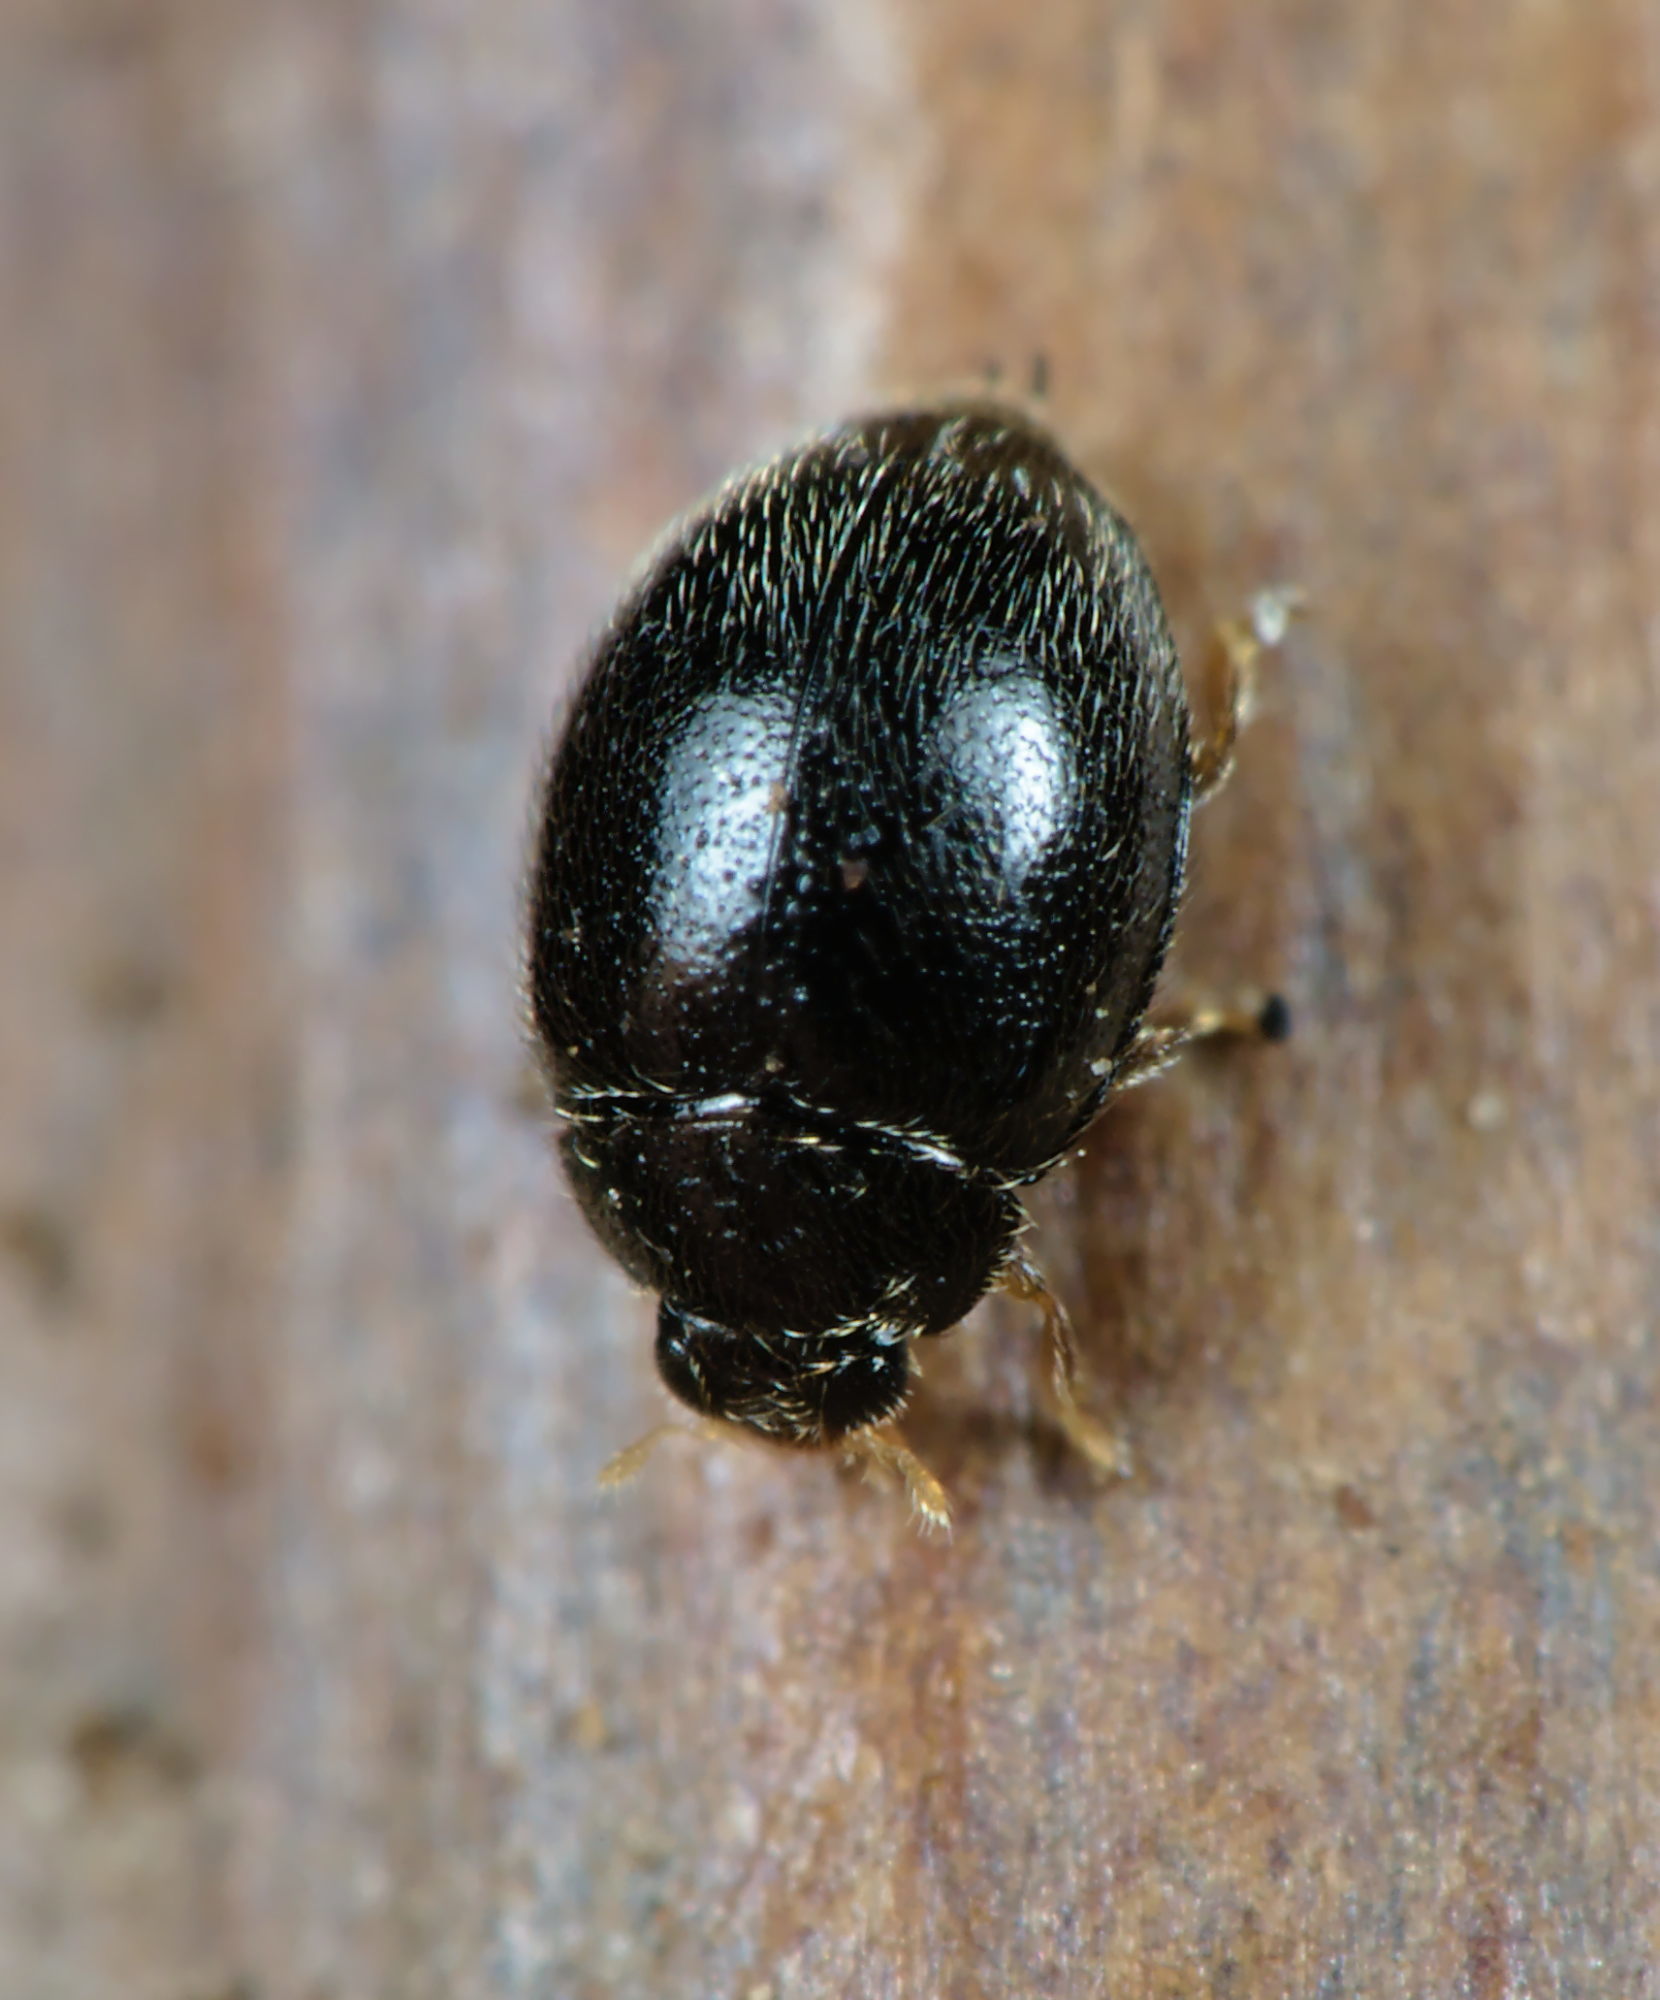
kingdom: Animalia
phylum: Arthropoda
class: Insecta
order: Coleoptera
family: Coccinellidae
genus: Stethorus
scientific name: Stethorus pusillus
